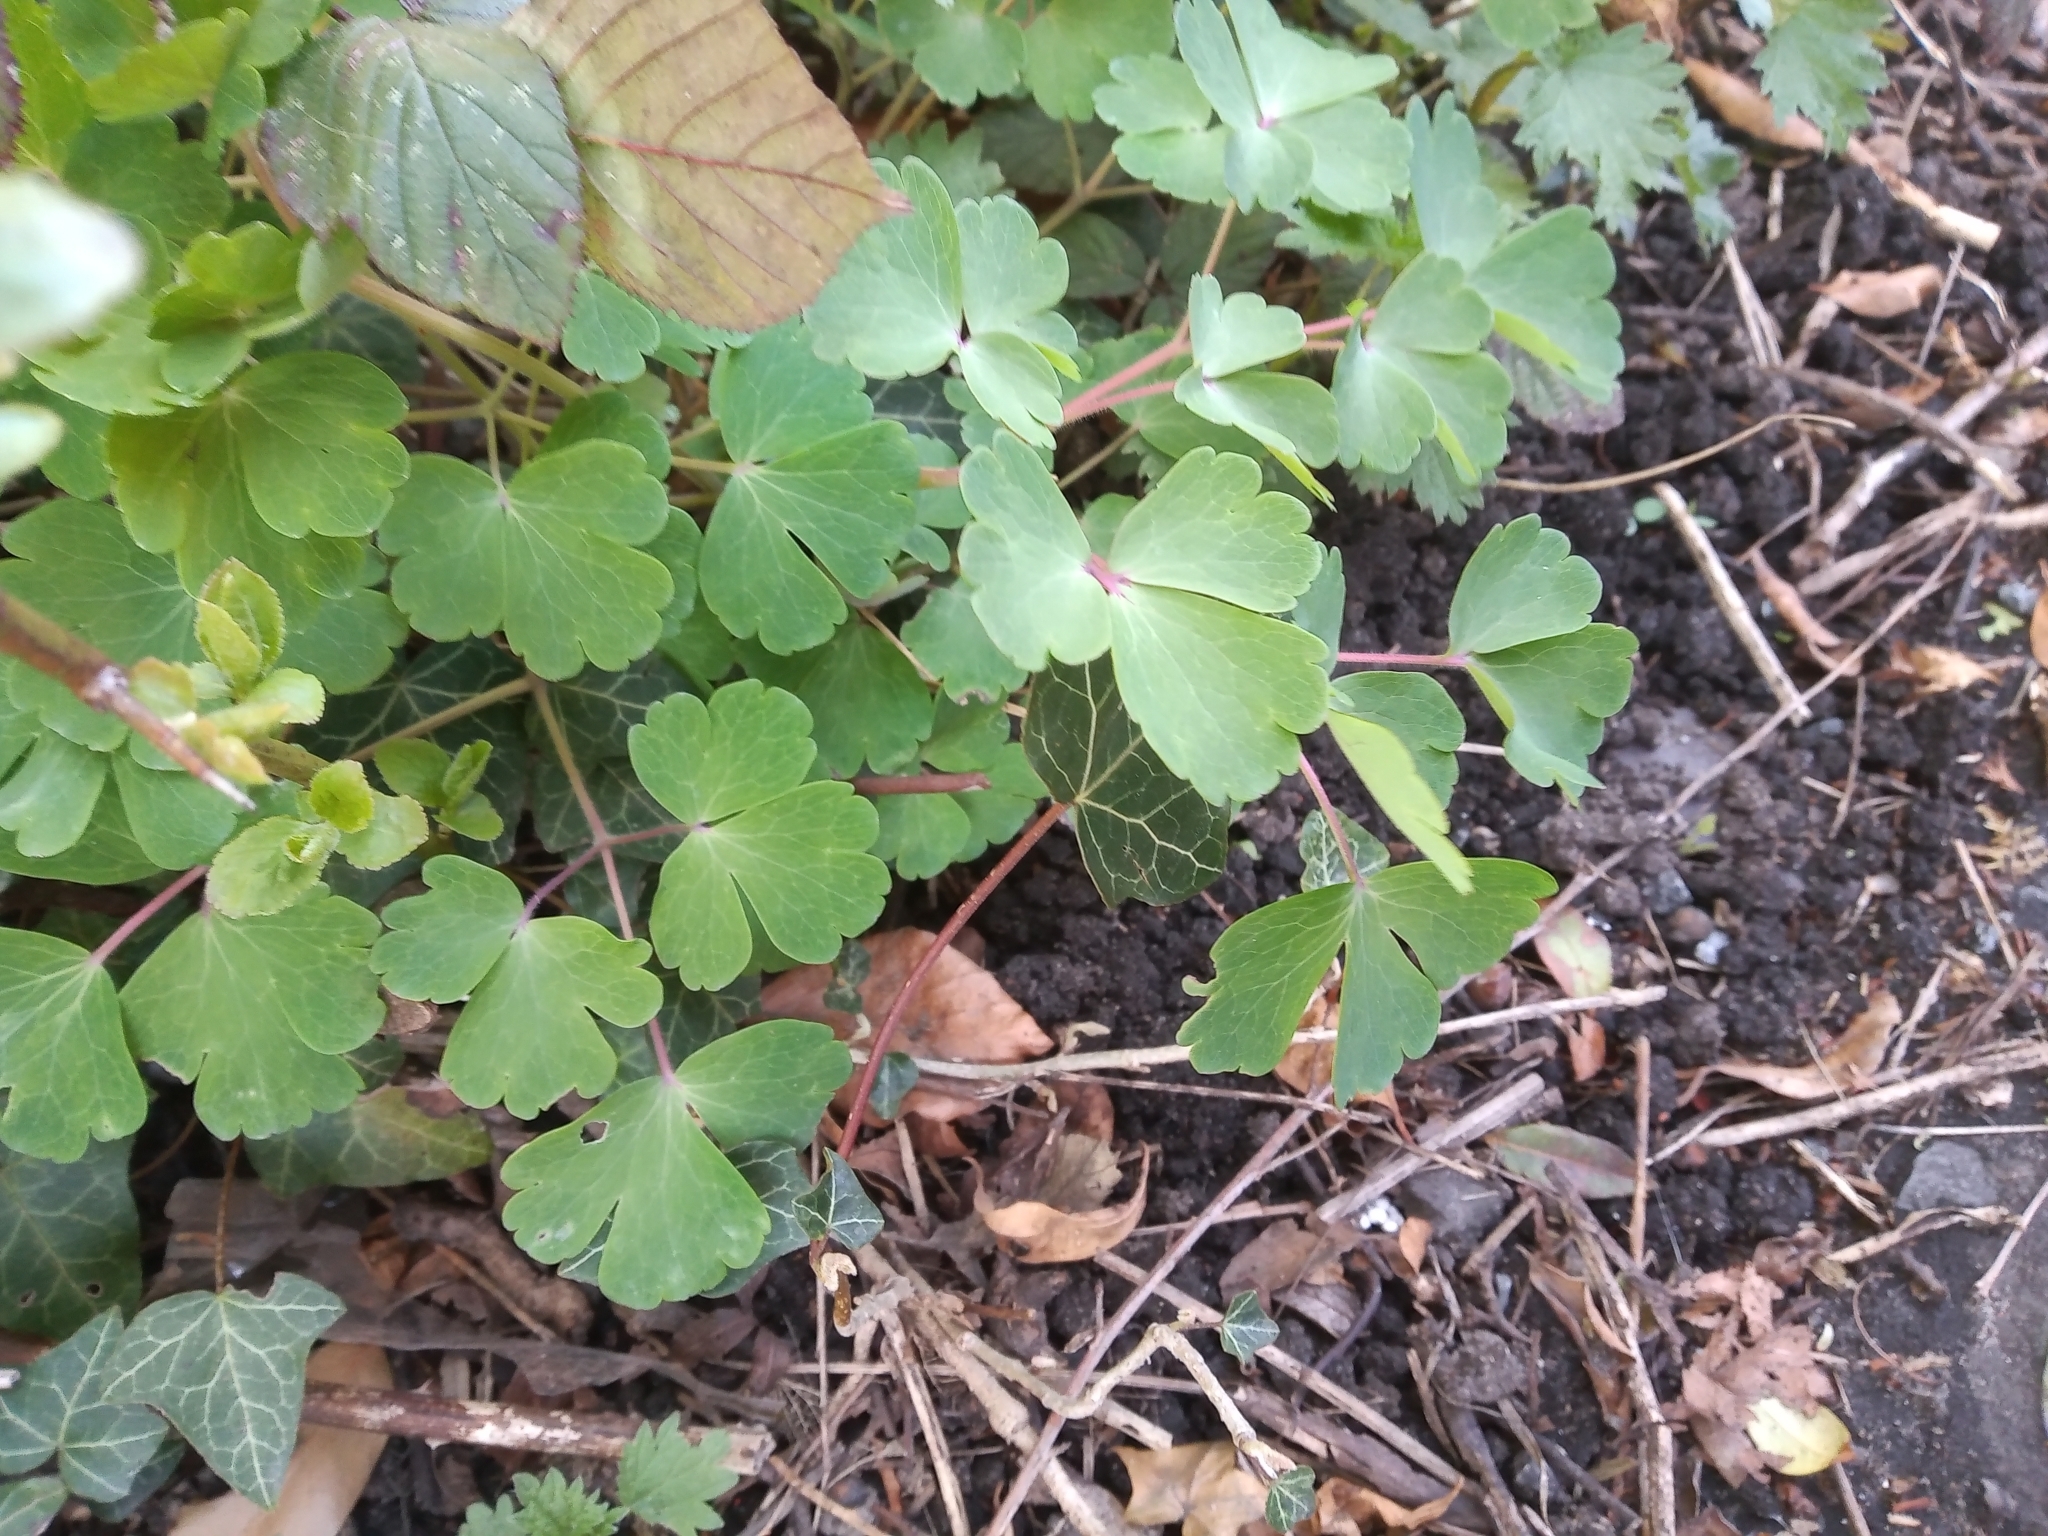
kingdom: Plantae
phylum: Tracheophyta
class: Magnoliopsida
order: Ranunculales
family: Ranunculaceae
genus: Aquilegia
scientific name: Aquilegia vulgaris
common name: Columbine
